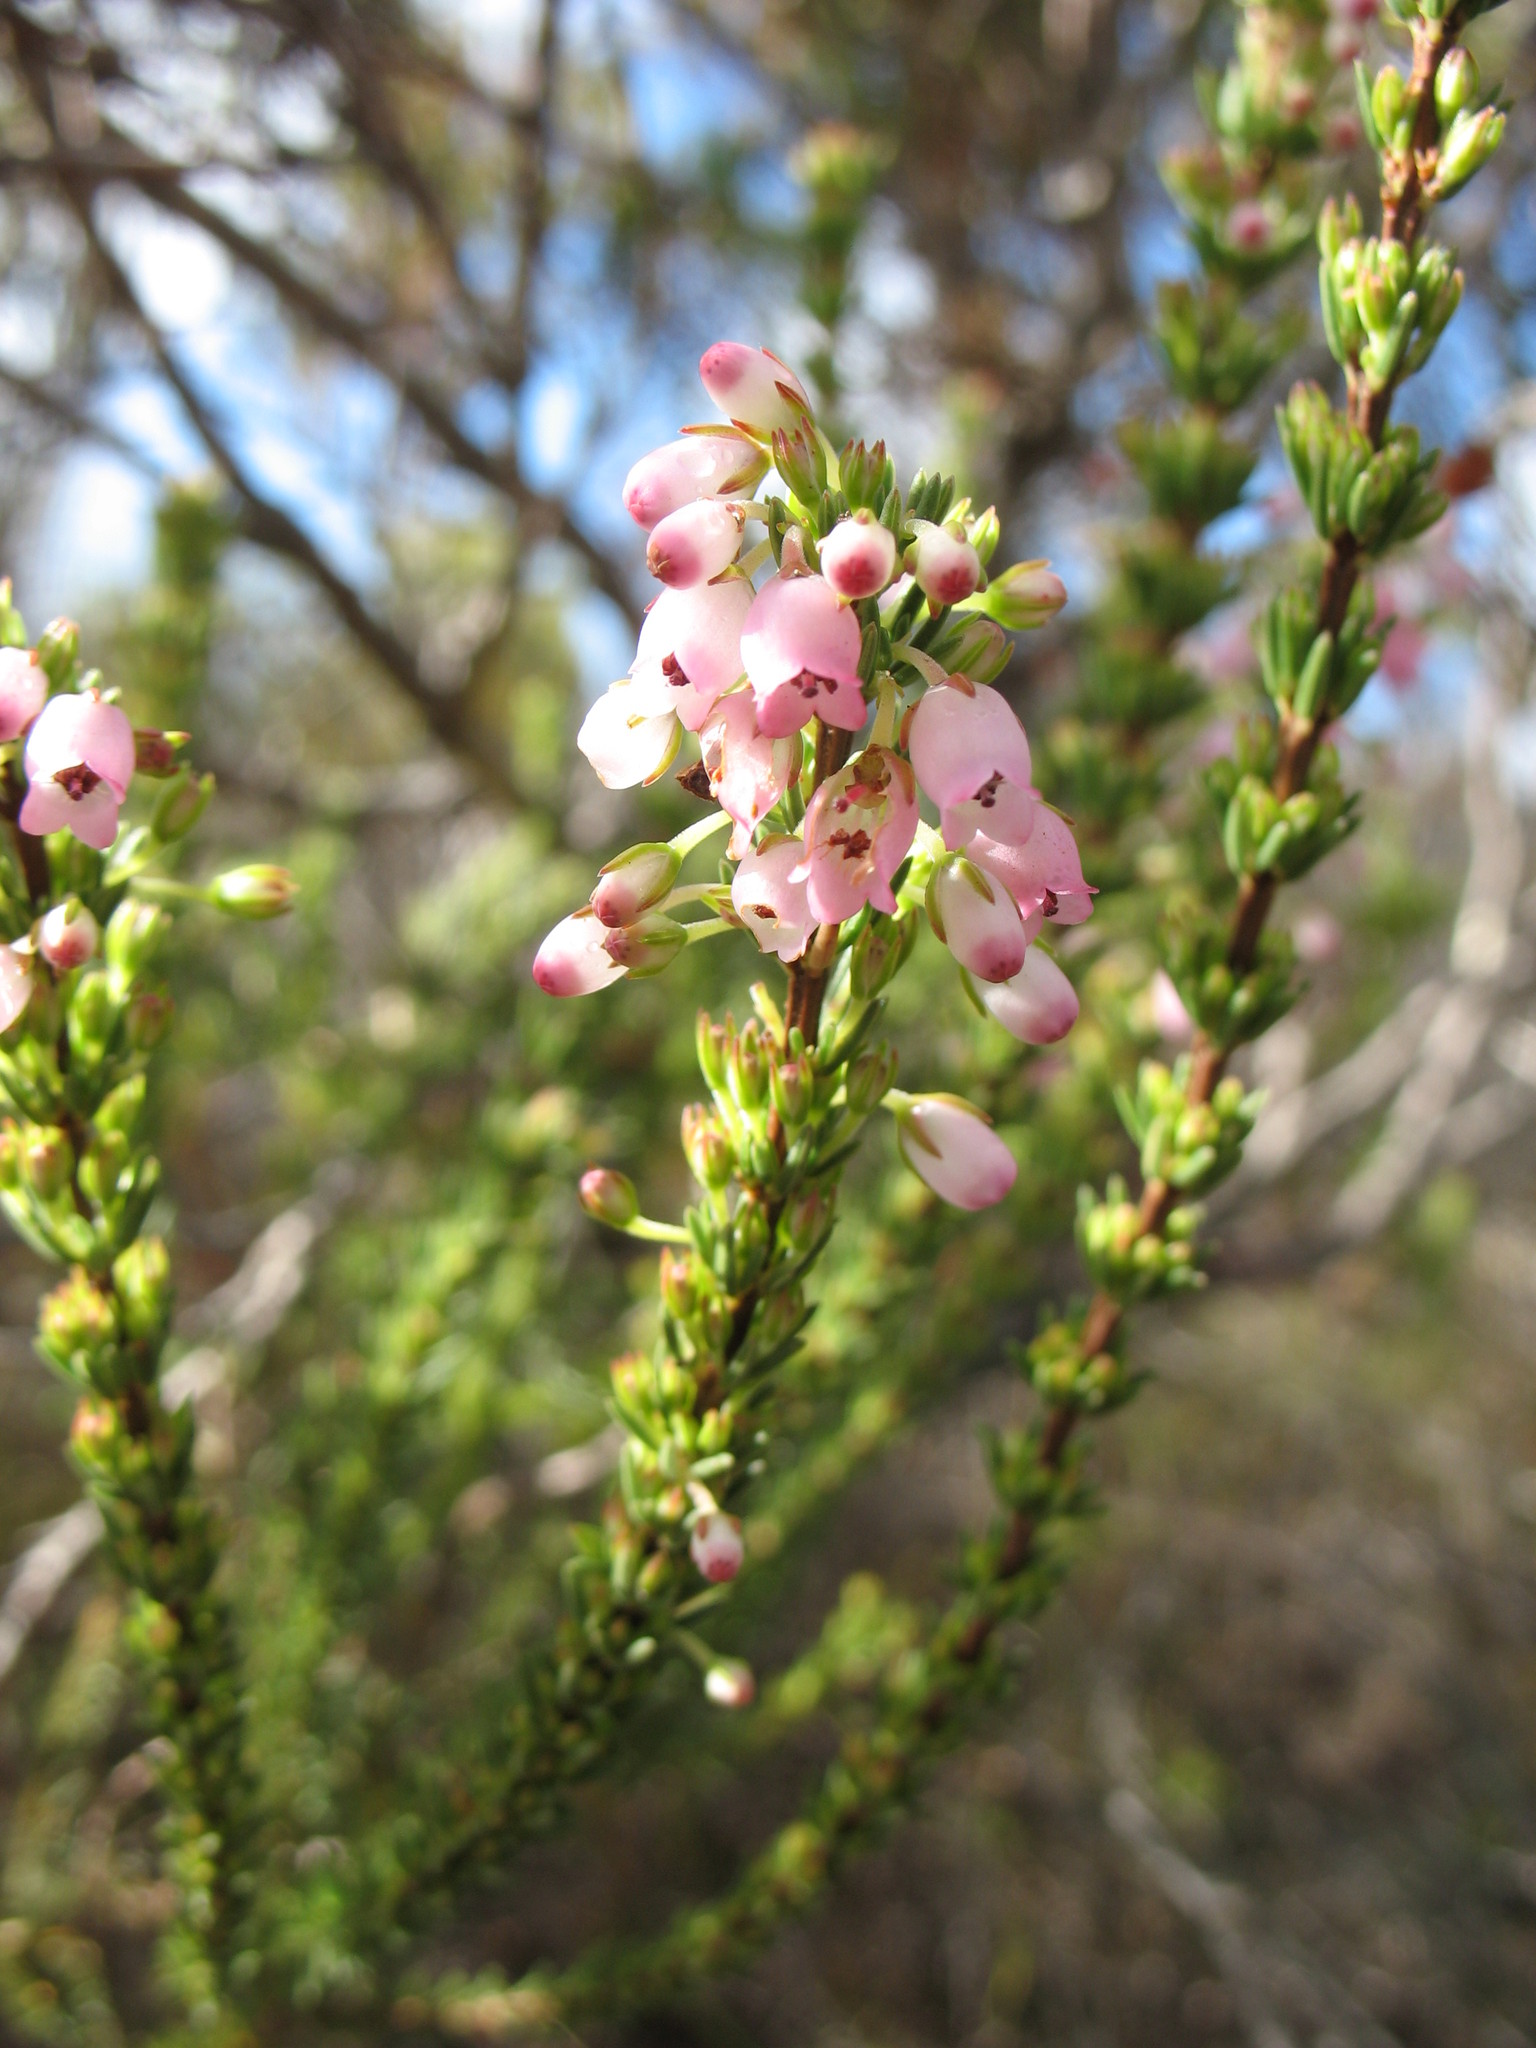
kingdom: Plantae
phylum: Tracheophyta
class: Magnoliopsida
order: Ericales
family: Ericaceae
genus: Erica
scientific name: Erica filipendula
